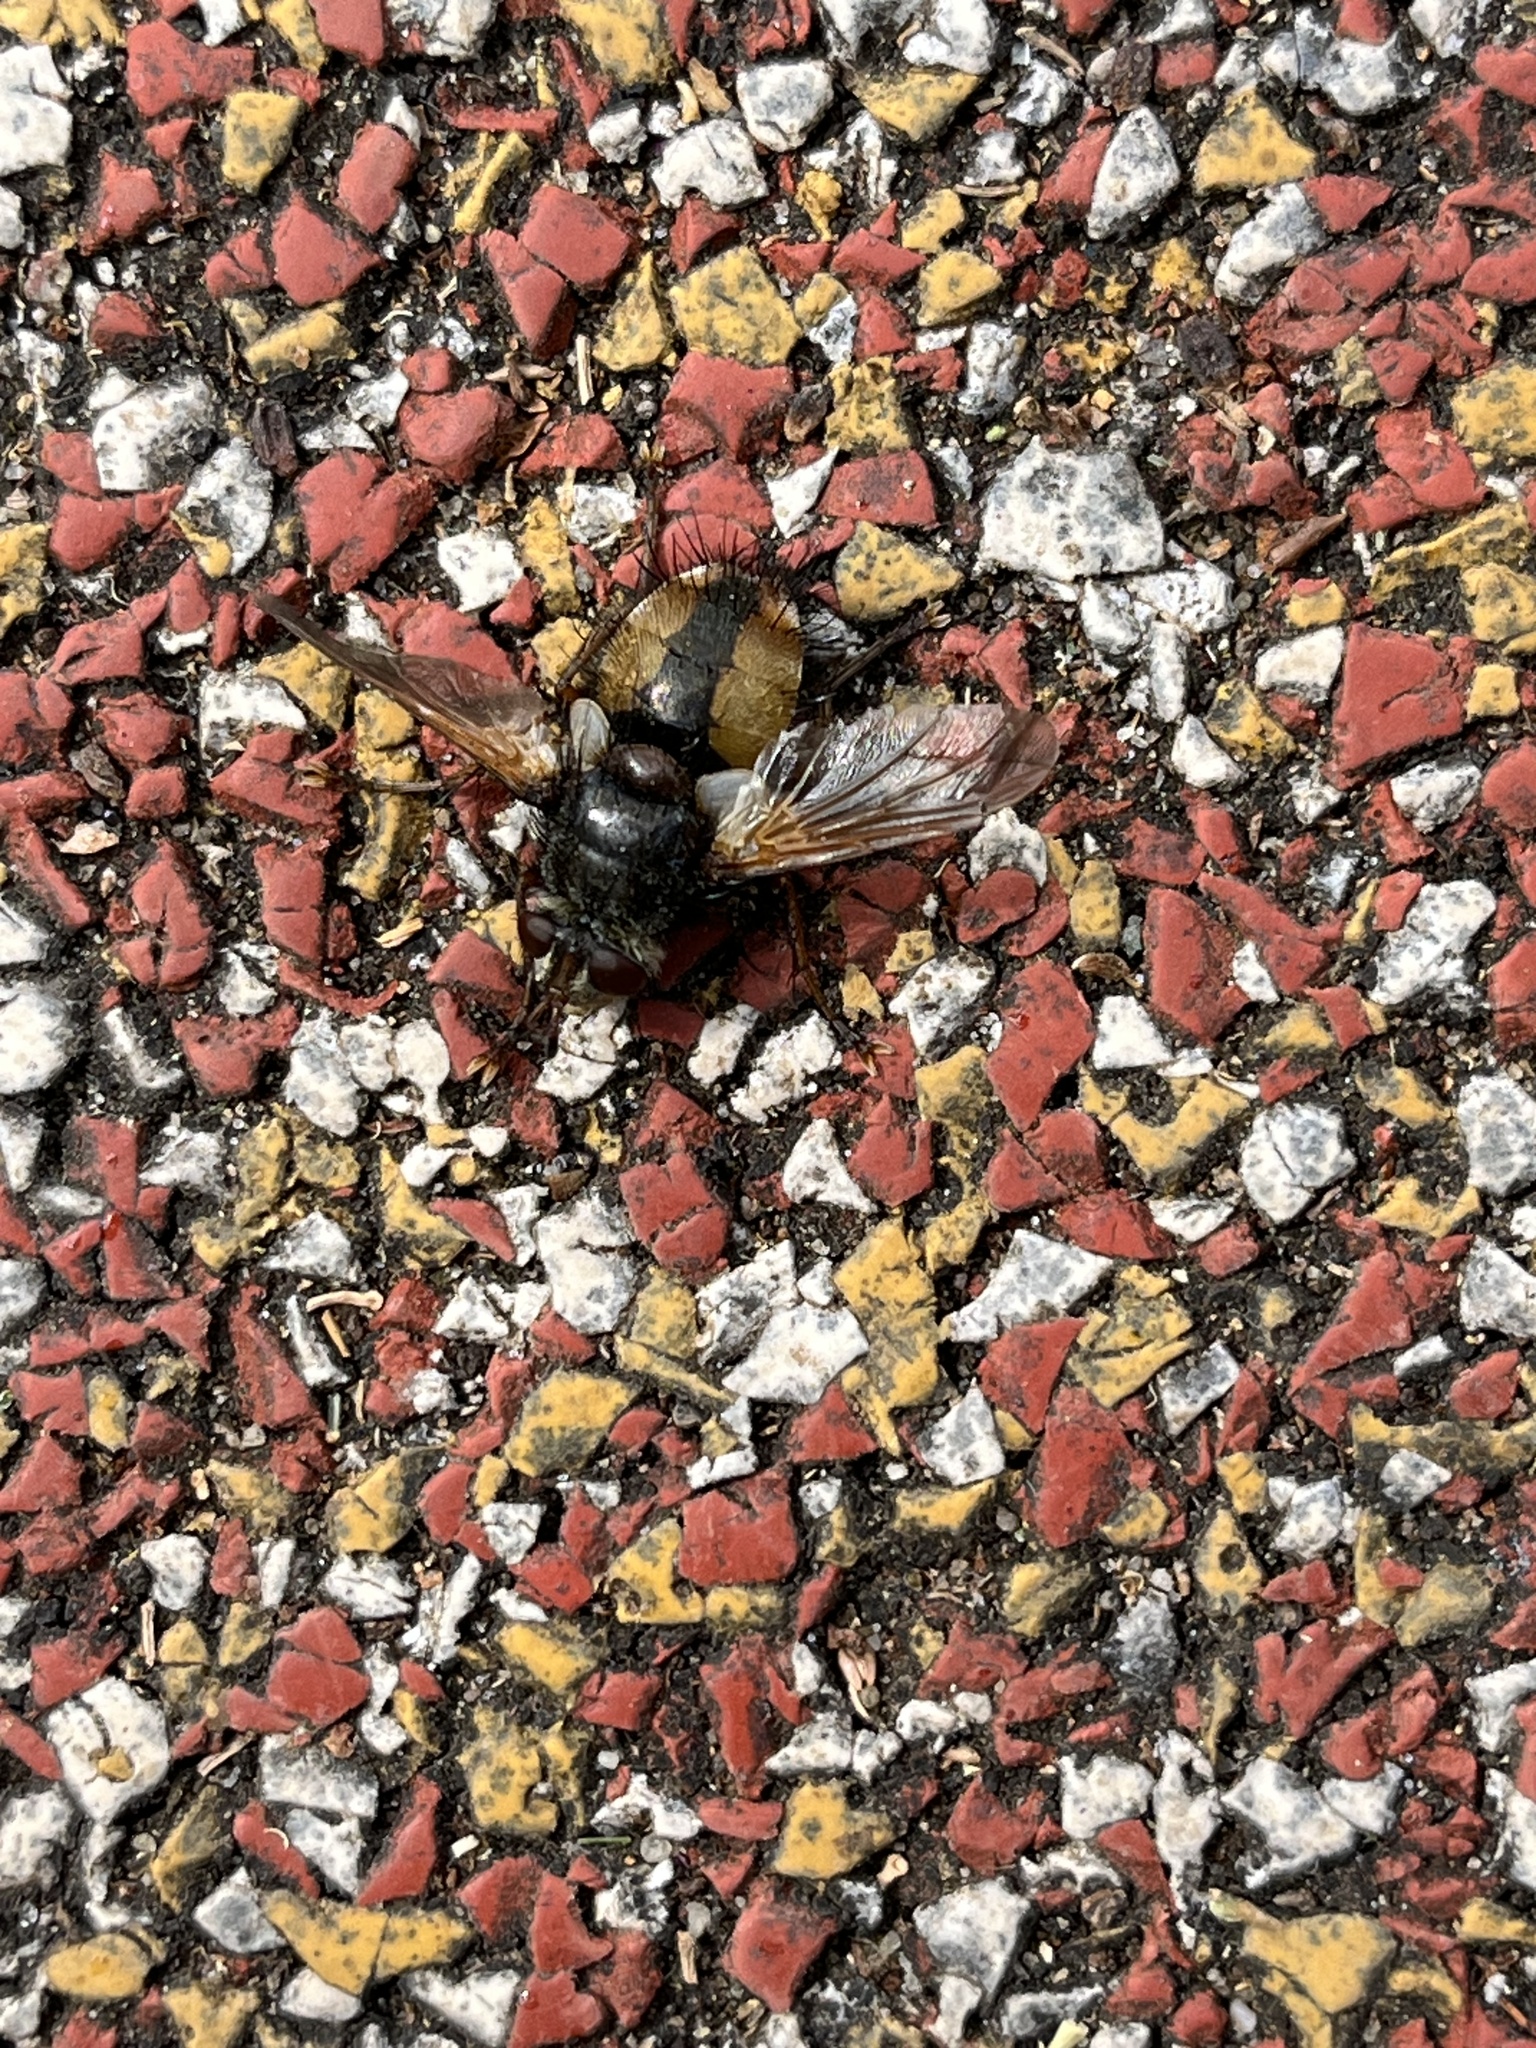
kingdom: Animalia
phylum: Arthropoda
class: Insecta
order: Diptera
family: Tachinidae
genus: Tachina
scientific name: Tachina fera
